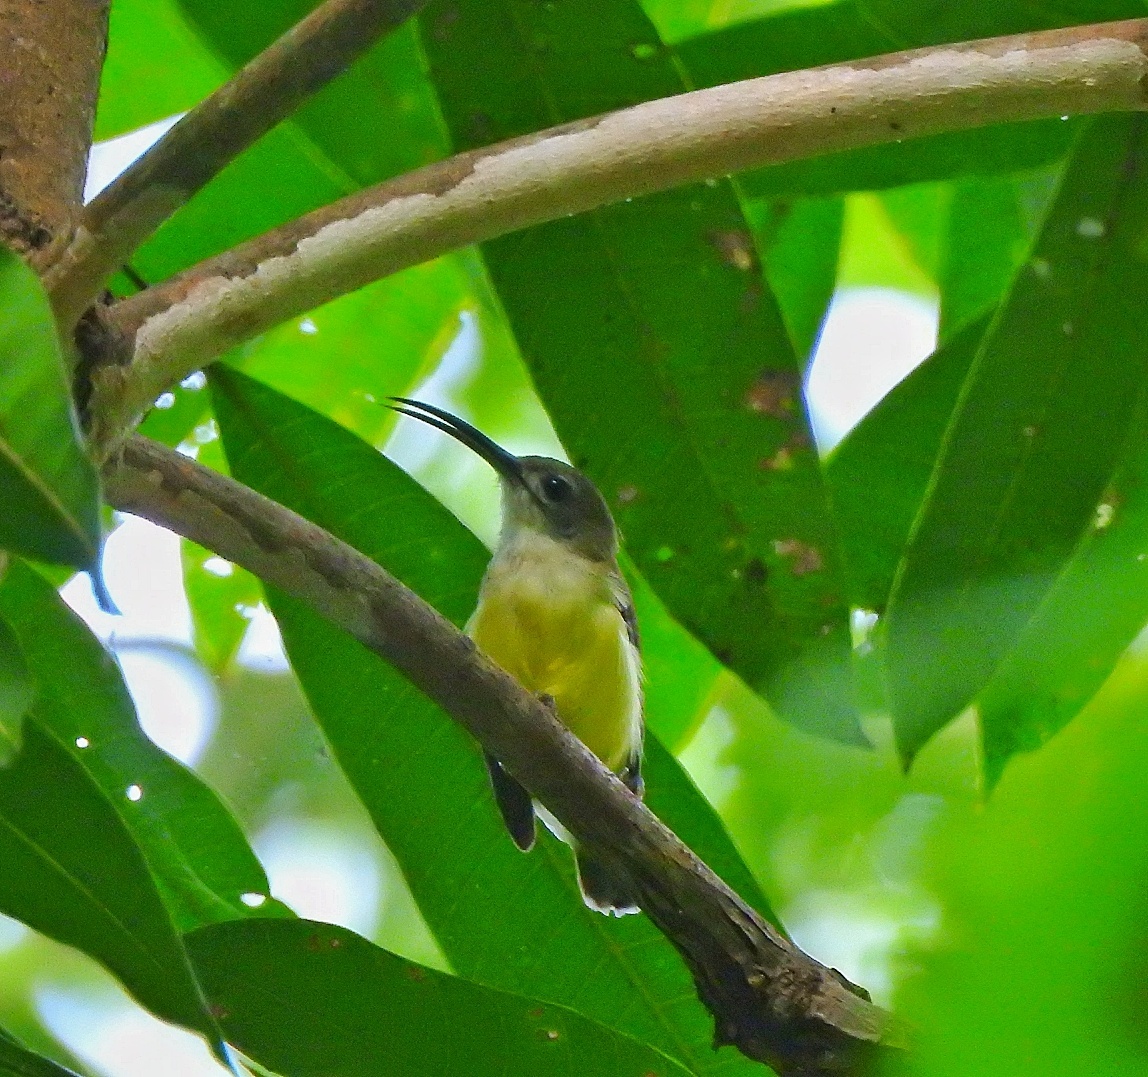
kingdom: Animalia
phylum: Chordata
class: Aves
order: Passeriformes
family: Nectariniidae
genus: Arachnothera
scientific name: Arachnothera longirostra
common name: Little spiderhunter
